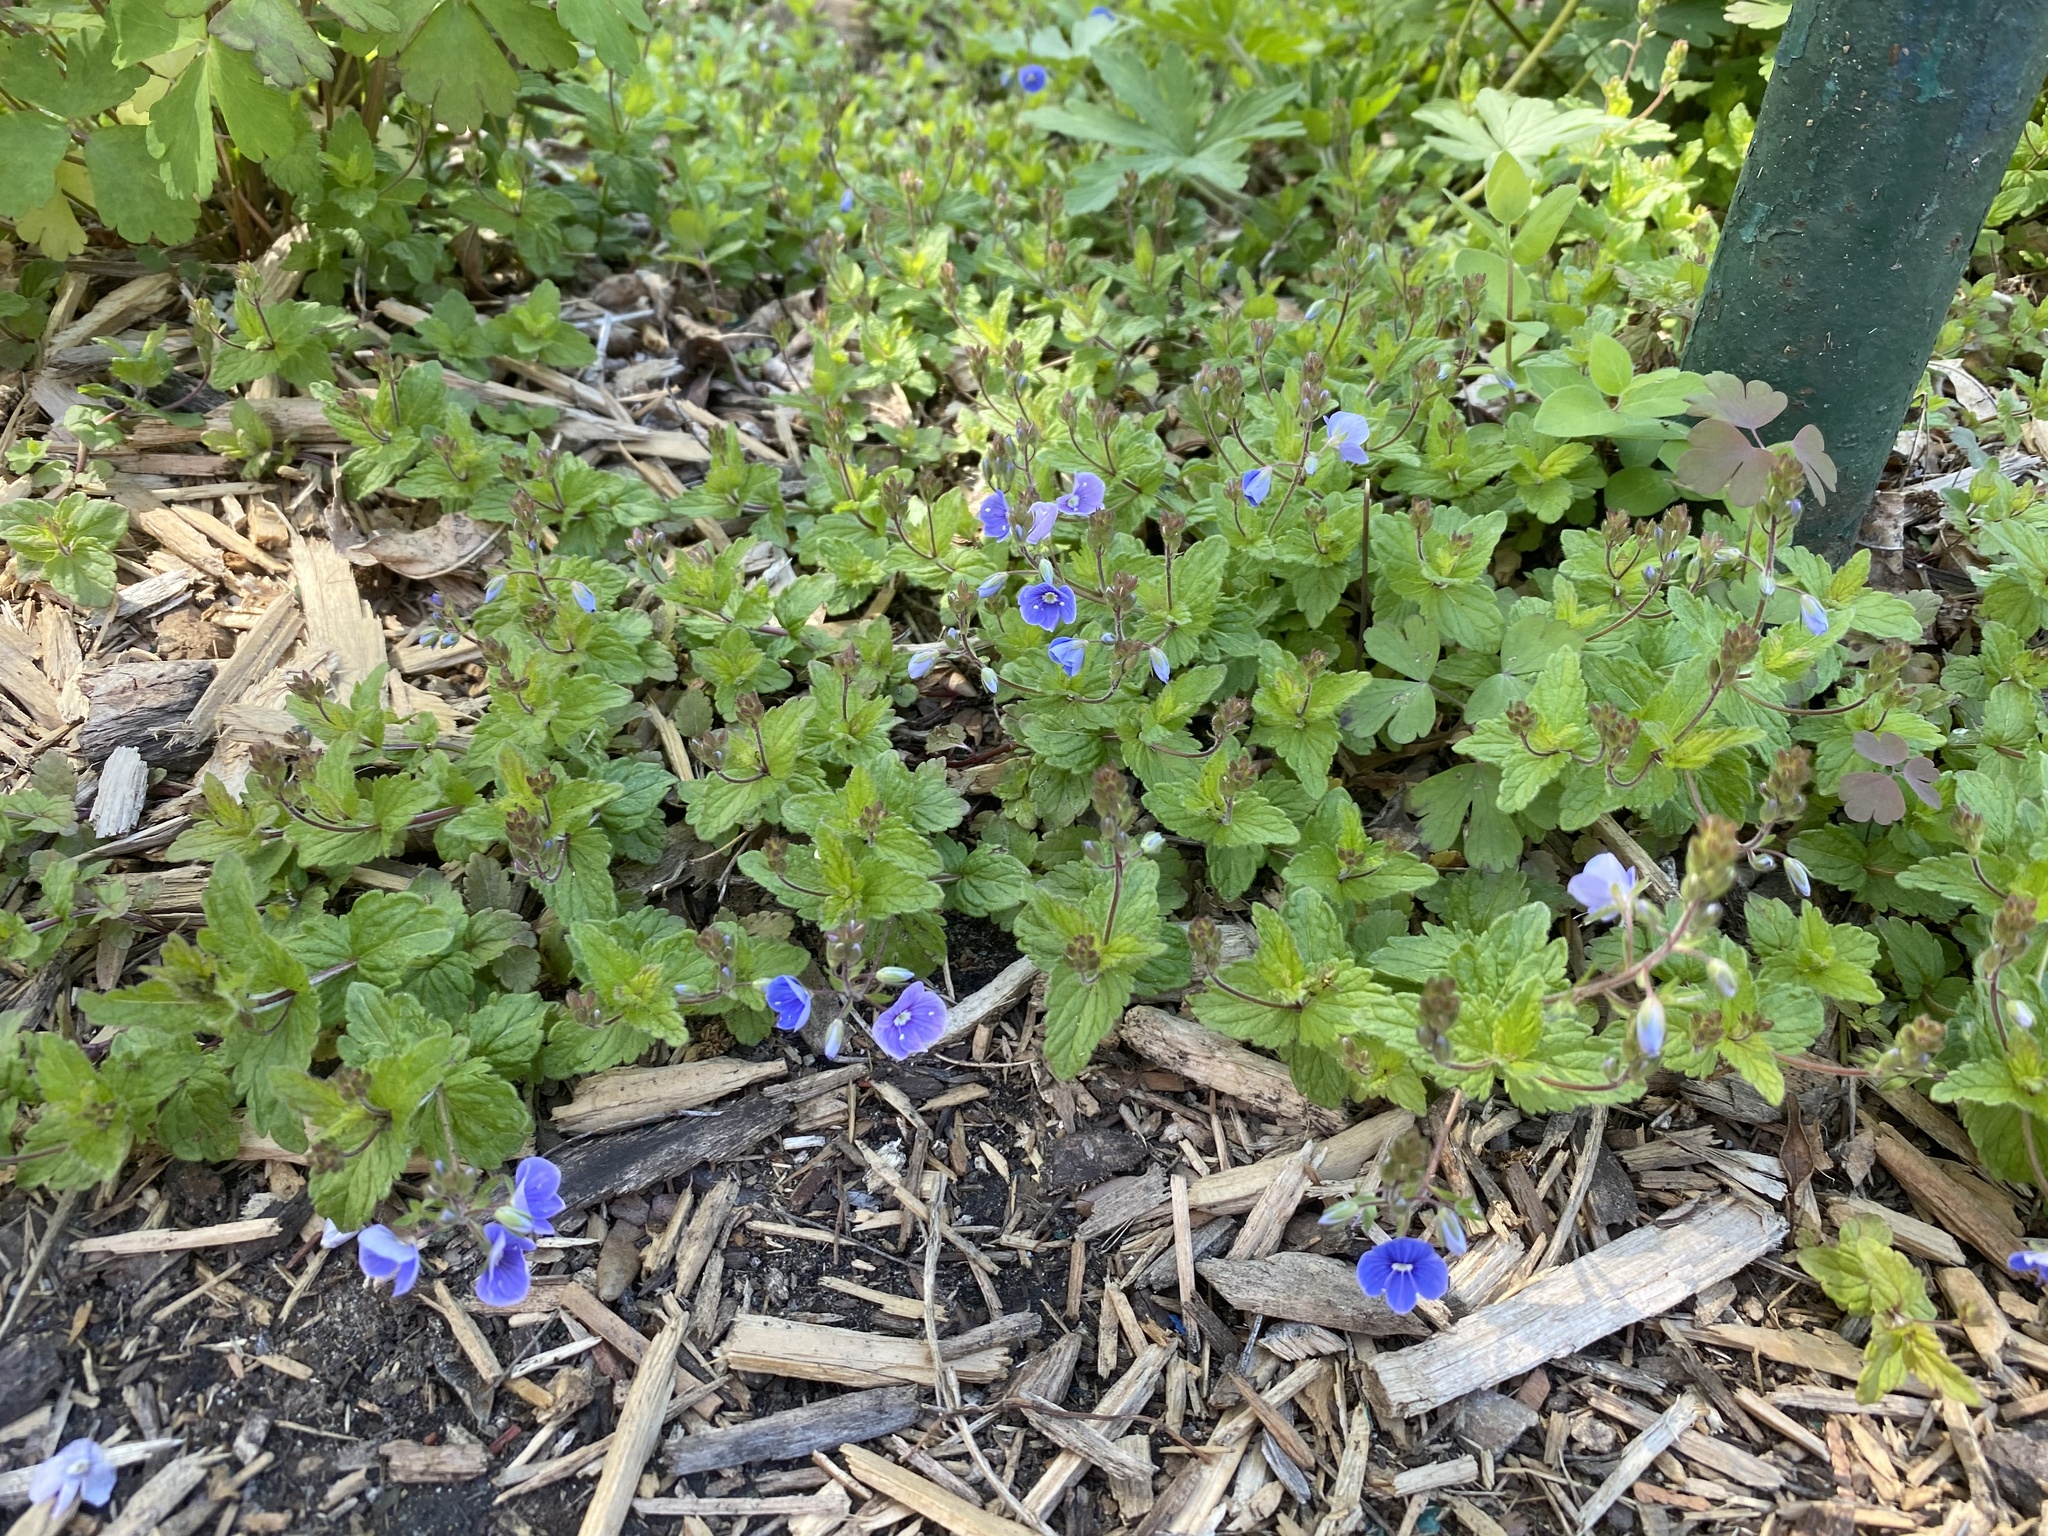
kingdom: Plantae
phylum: Tracheophyta
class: Magnoliopsida
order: Lamiales
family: Plantaginaceae
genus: Veronica
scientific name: Veronica chamaedrys
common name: Germander speedwell
